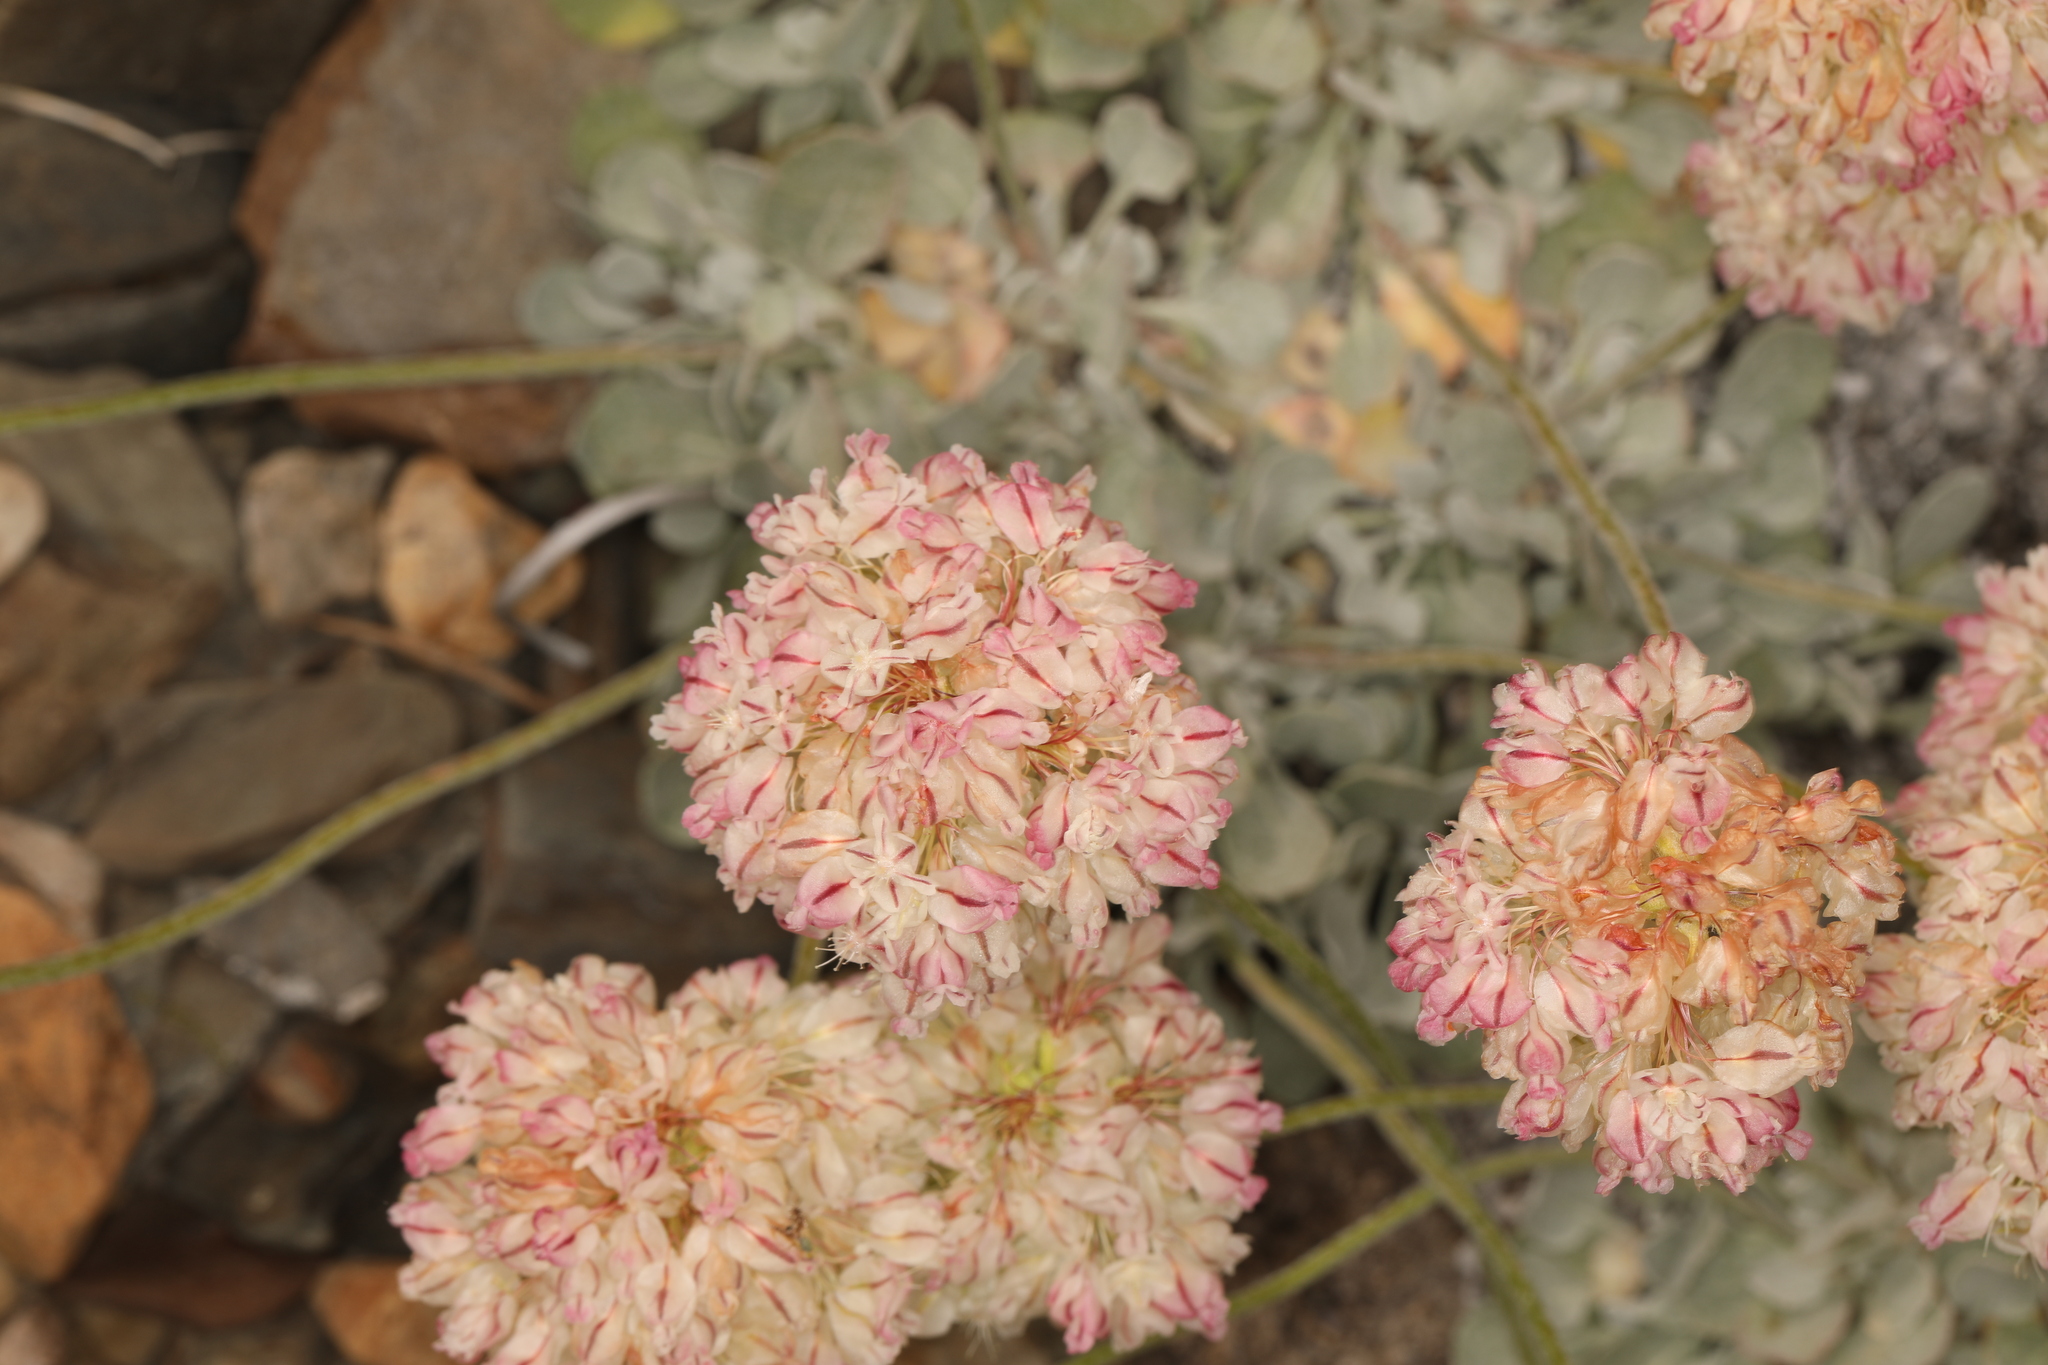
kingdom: Plantae
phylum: Tracheophyta
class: Magnoliopsida
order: Caryophyllales
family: Polygonaceae
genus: Eriogonum
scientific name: Eriogonum ovalifolium
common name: Cushion buckwheat
